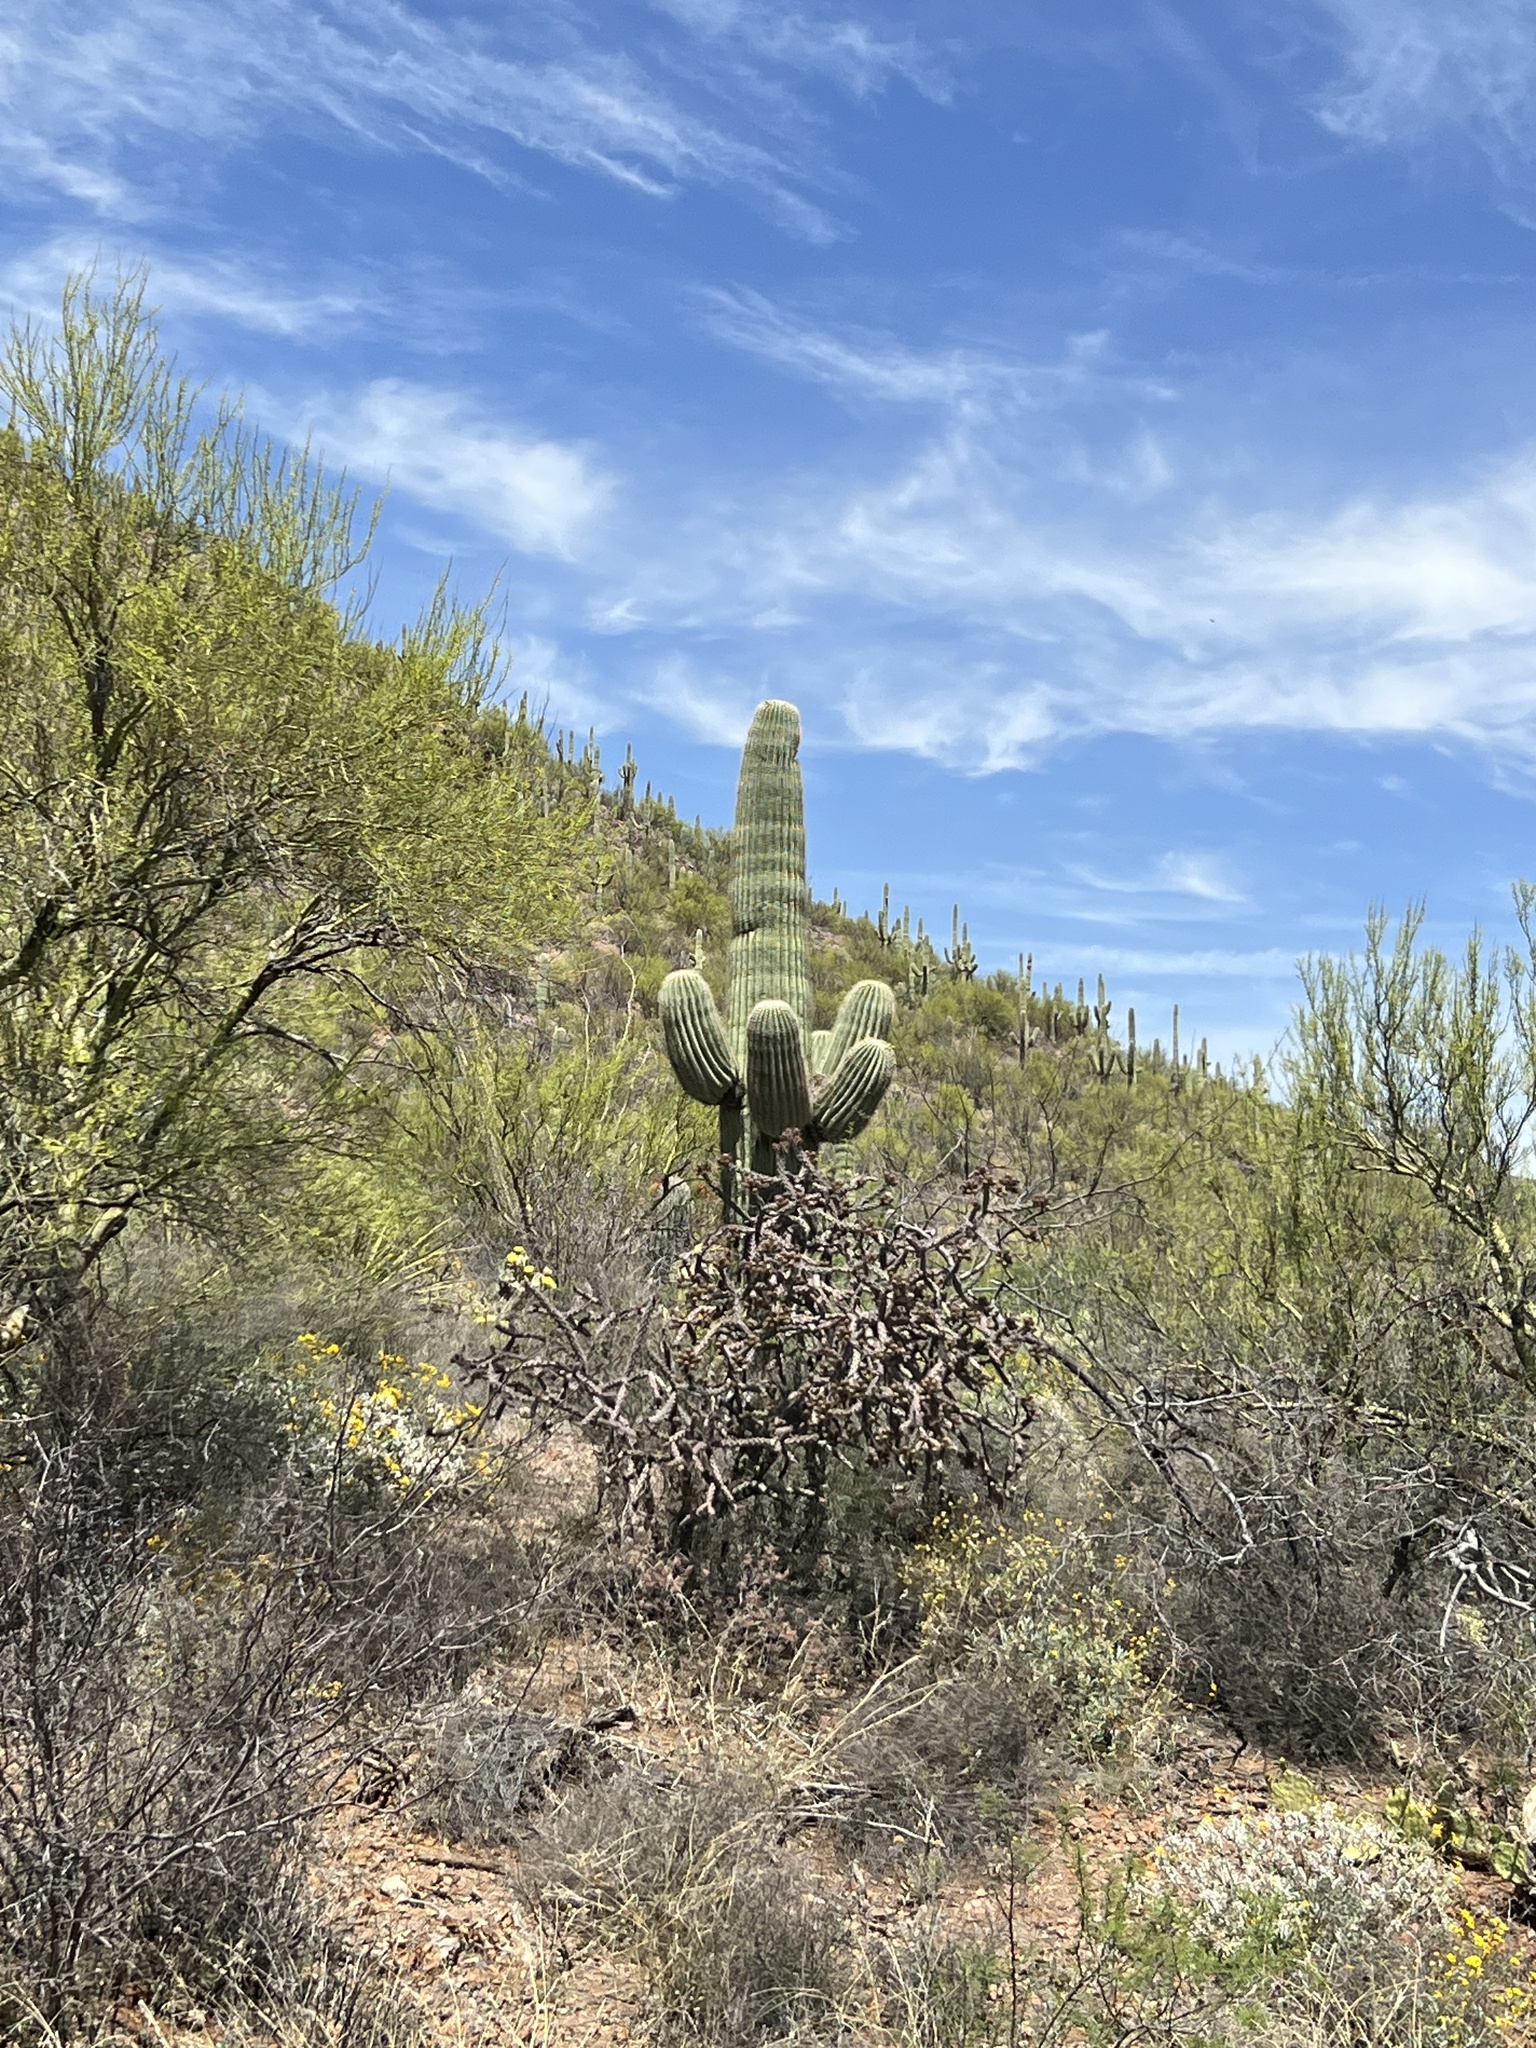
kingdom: Plantae
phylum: Tracheophyta
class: Magnoliopsida
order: Caryophyllales
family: Cactaceae
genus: Carnegiea
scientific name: Carnegiea gigantea
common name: Saguaro
